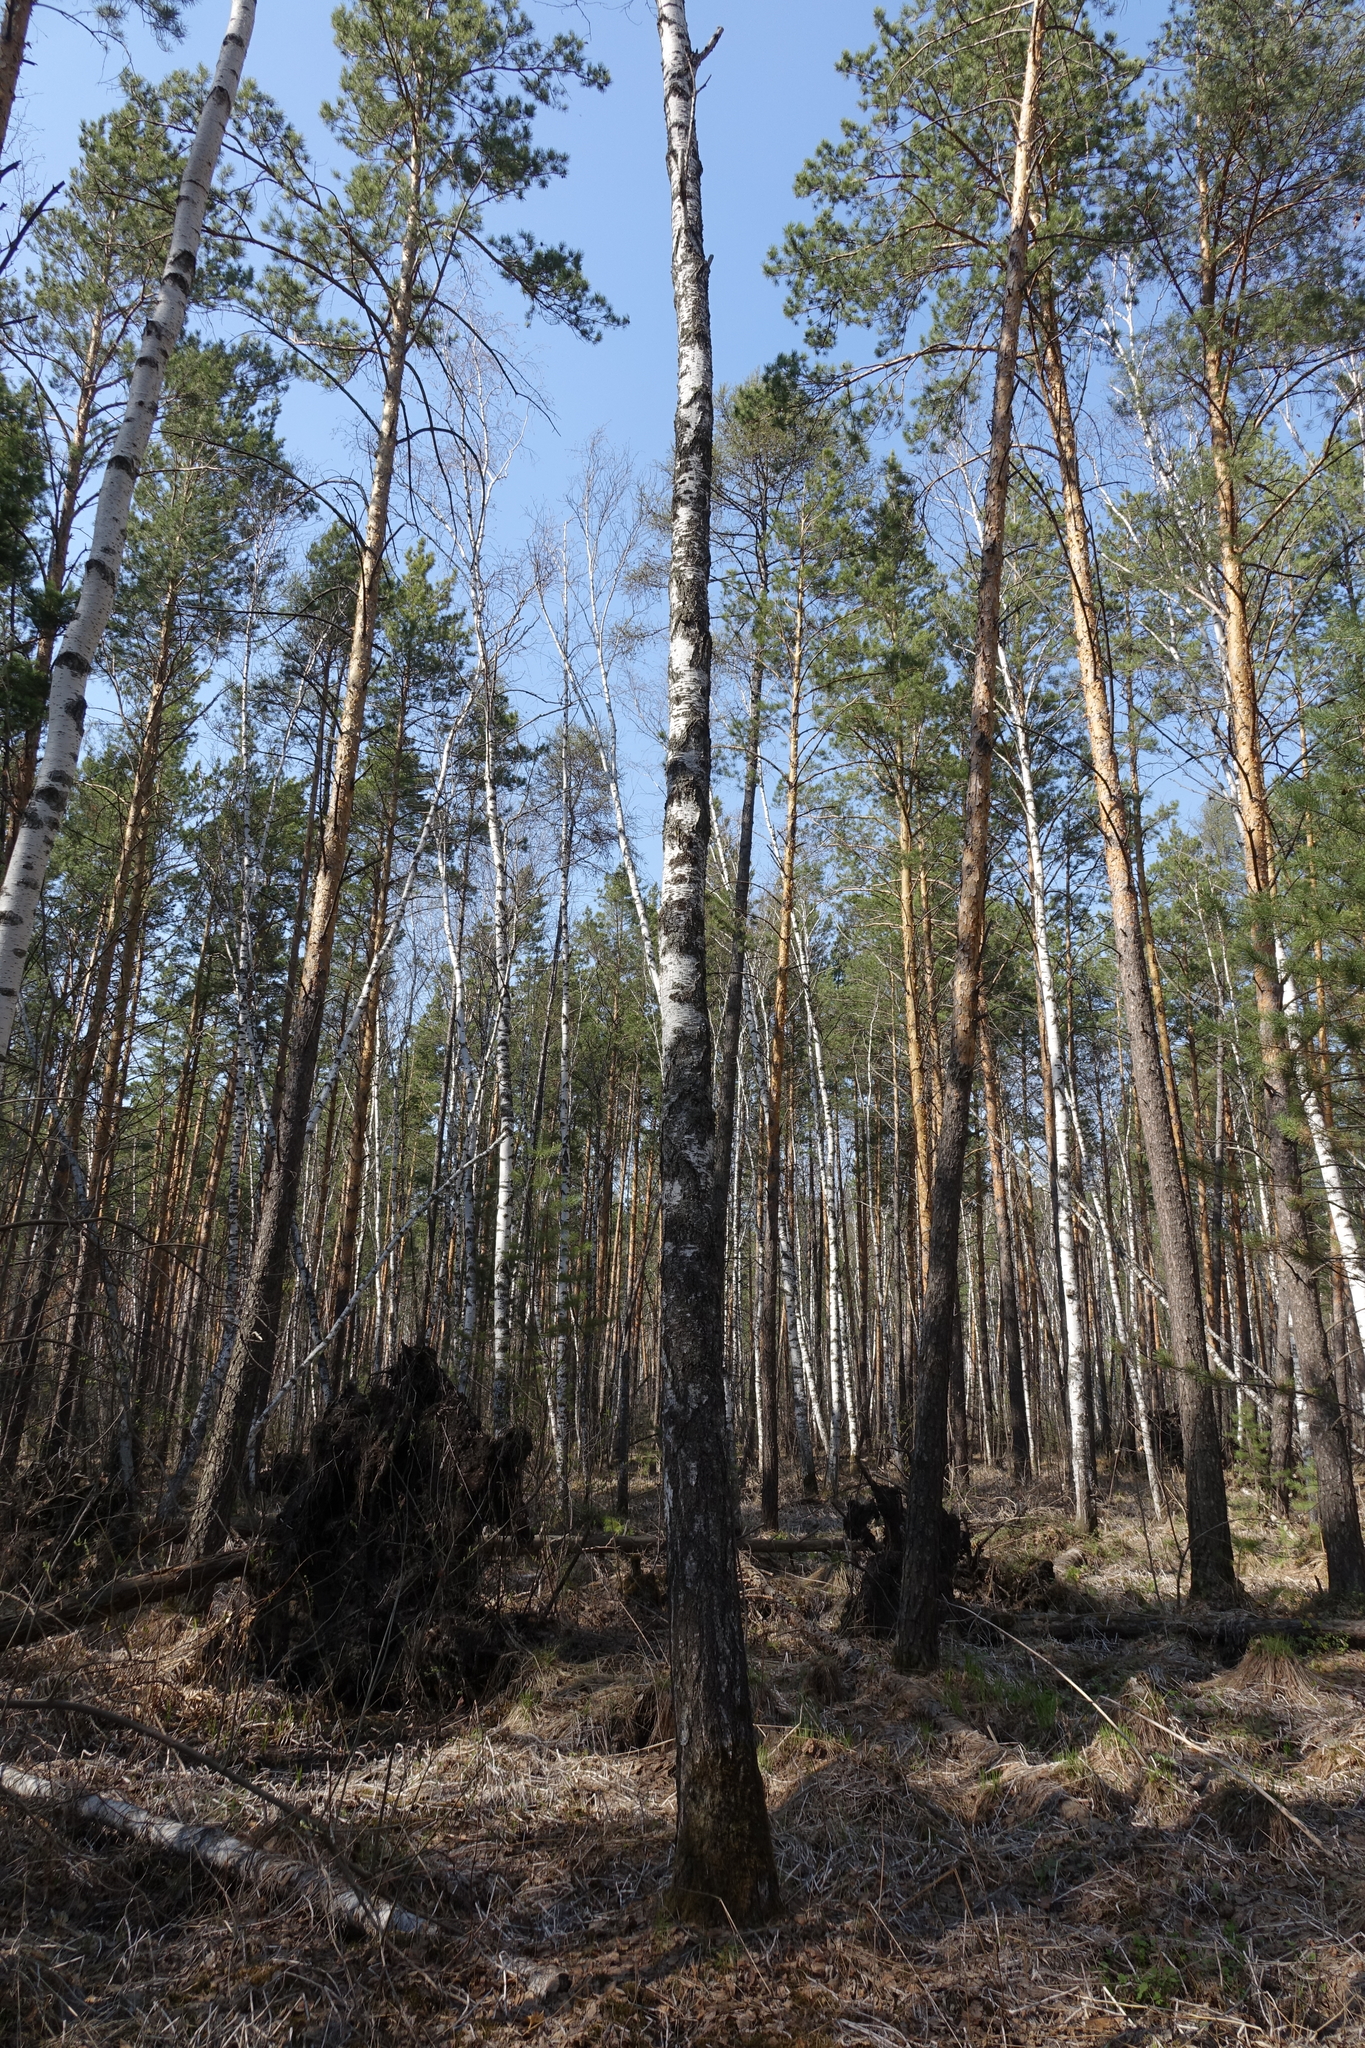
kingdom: Plantae
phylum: Tracheophyta
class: Pinopsida
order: Pinales
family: Pinaceae
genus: Pinus
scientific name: Pinus sylvestris
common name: Scots pine
